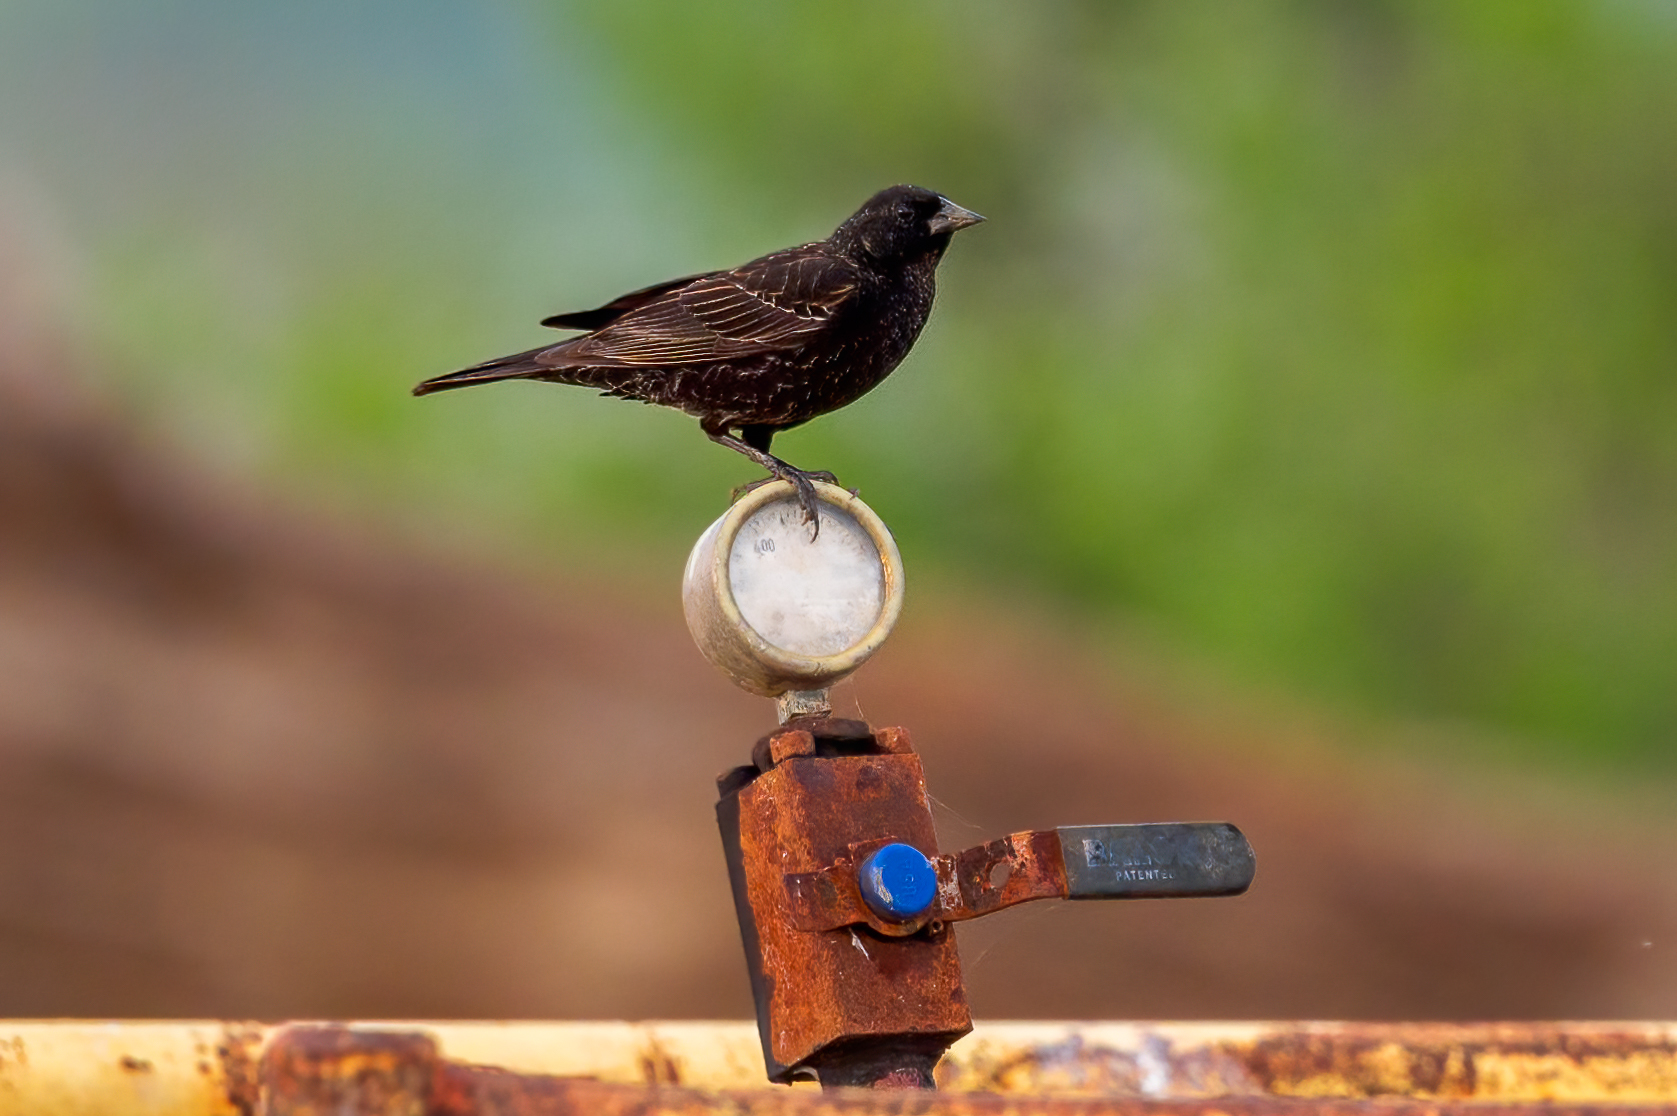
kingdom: Animalia
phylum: Chordata
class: Aves
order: Passeriformes
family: Icteridae
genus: Agelaius
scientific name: Agelaius phoeniceus
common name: Red-winged blackbird
